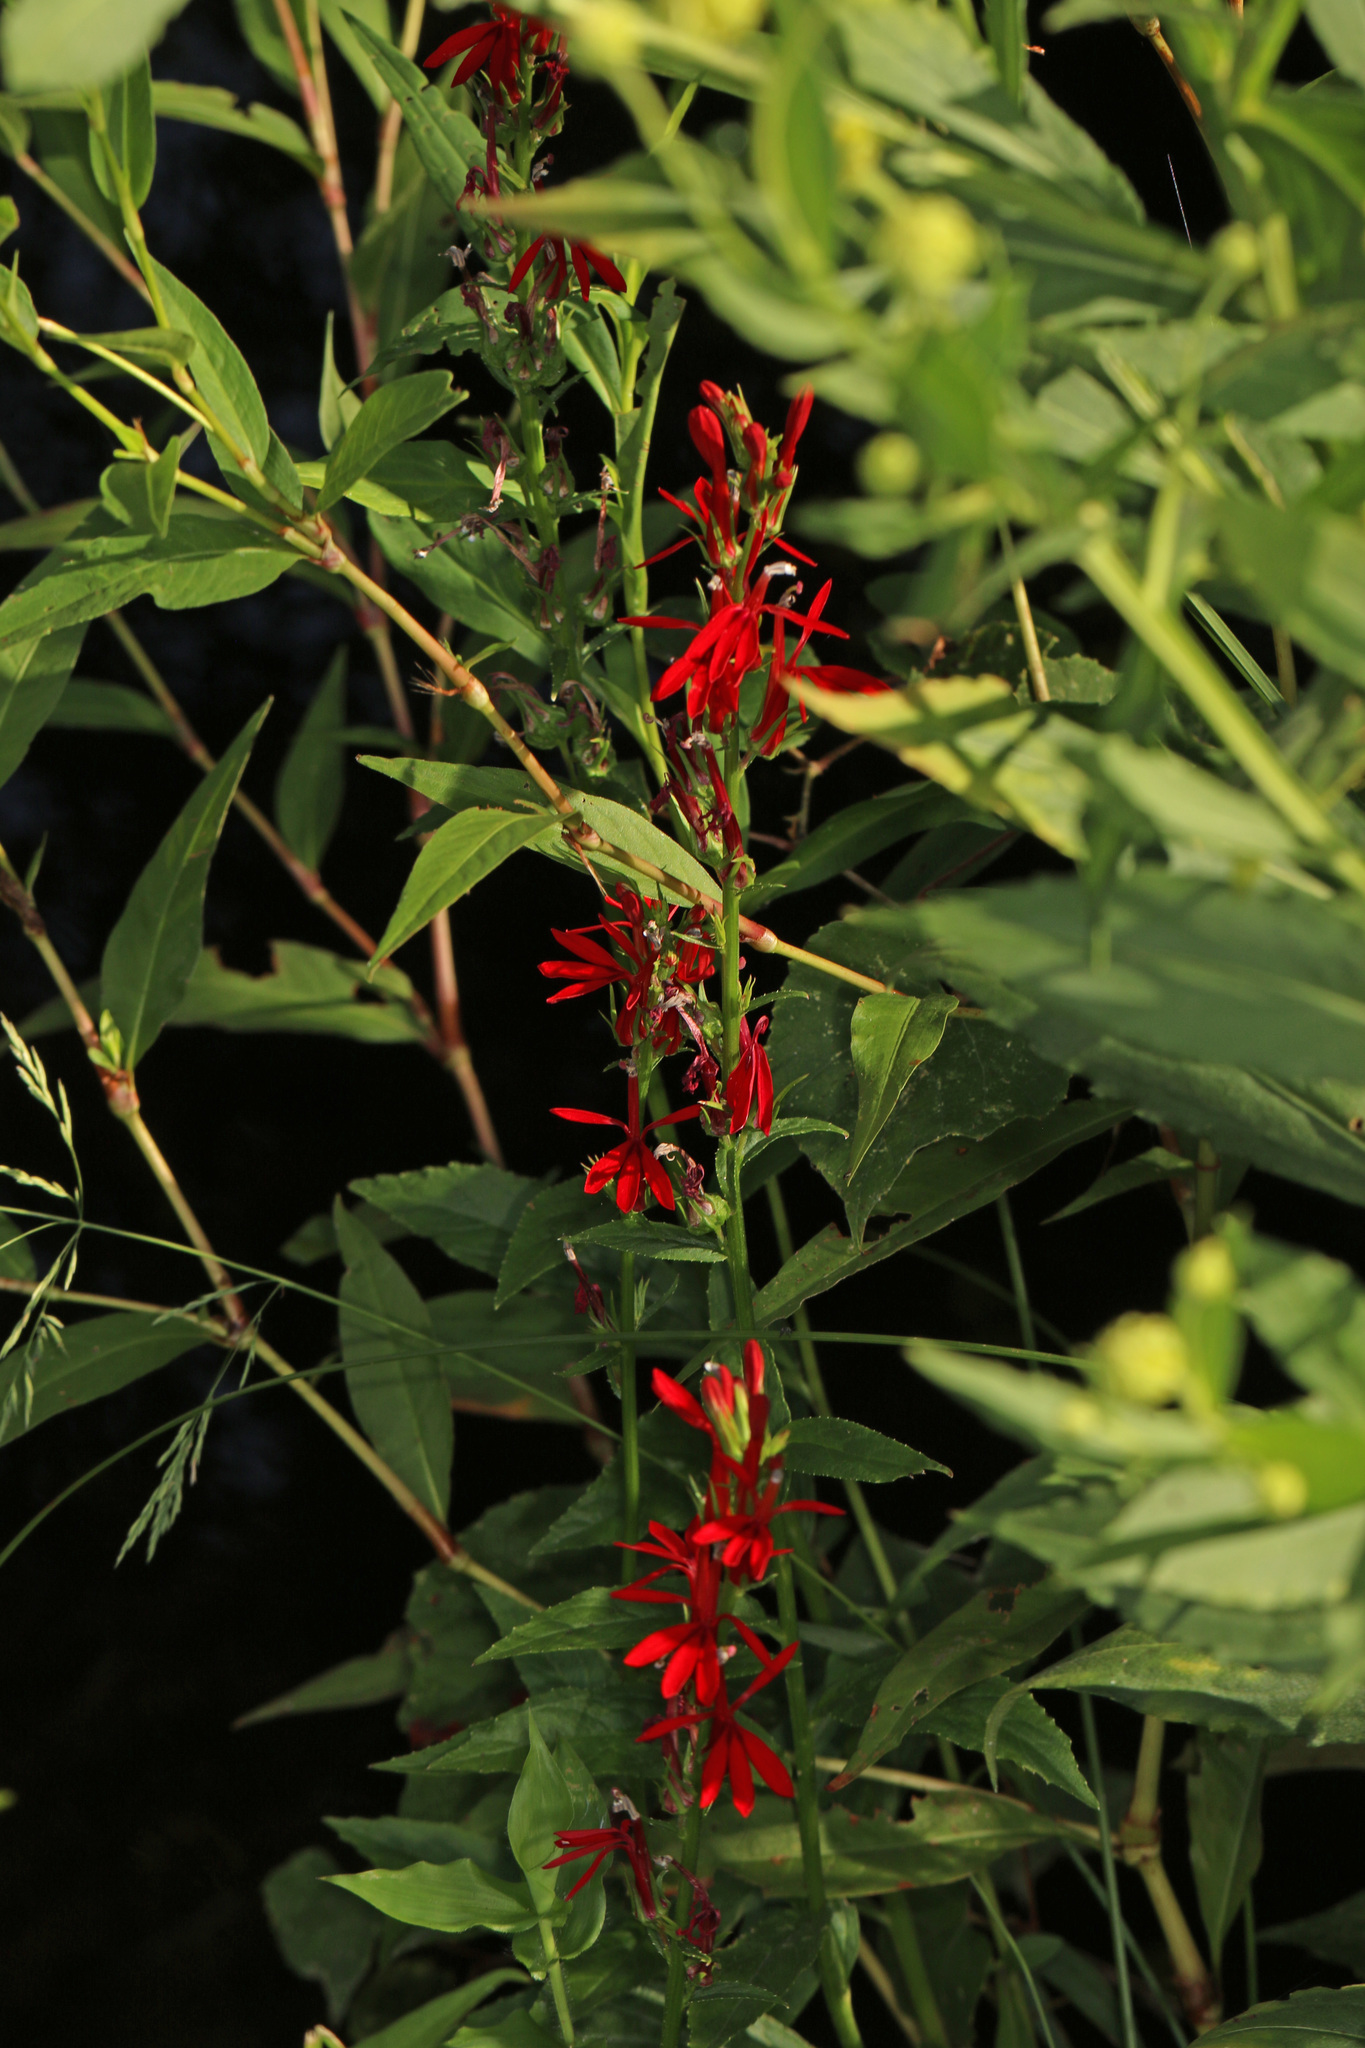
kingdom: Plantae
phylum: Tracheophyta
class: Magnoliopsida
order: Asterales
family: Campanulaceae
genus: Lobelia
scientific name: Lobelia cardinalis
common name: Cardinal flower
